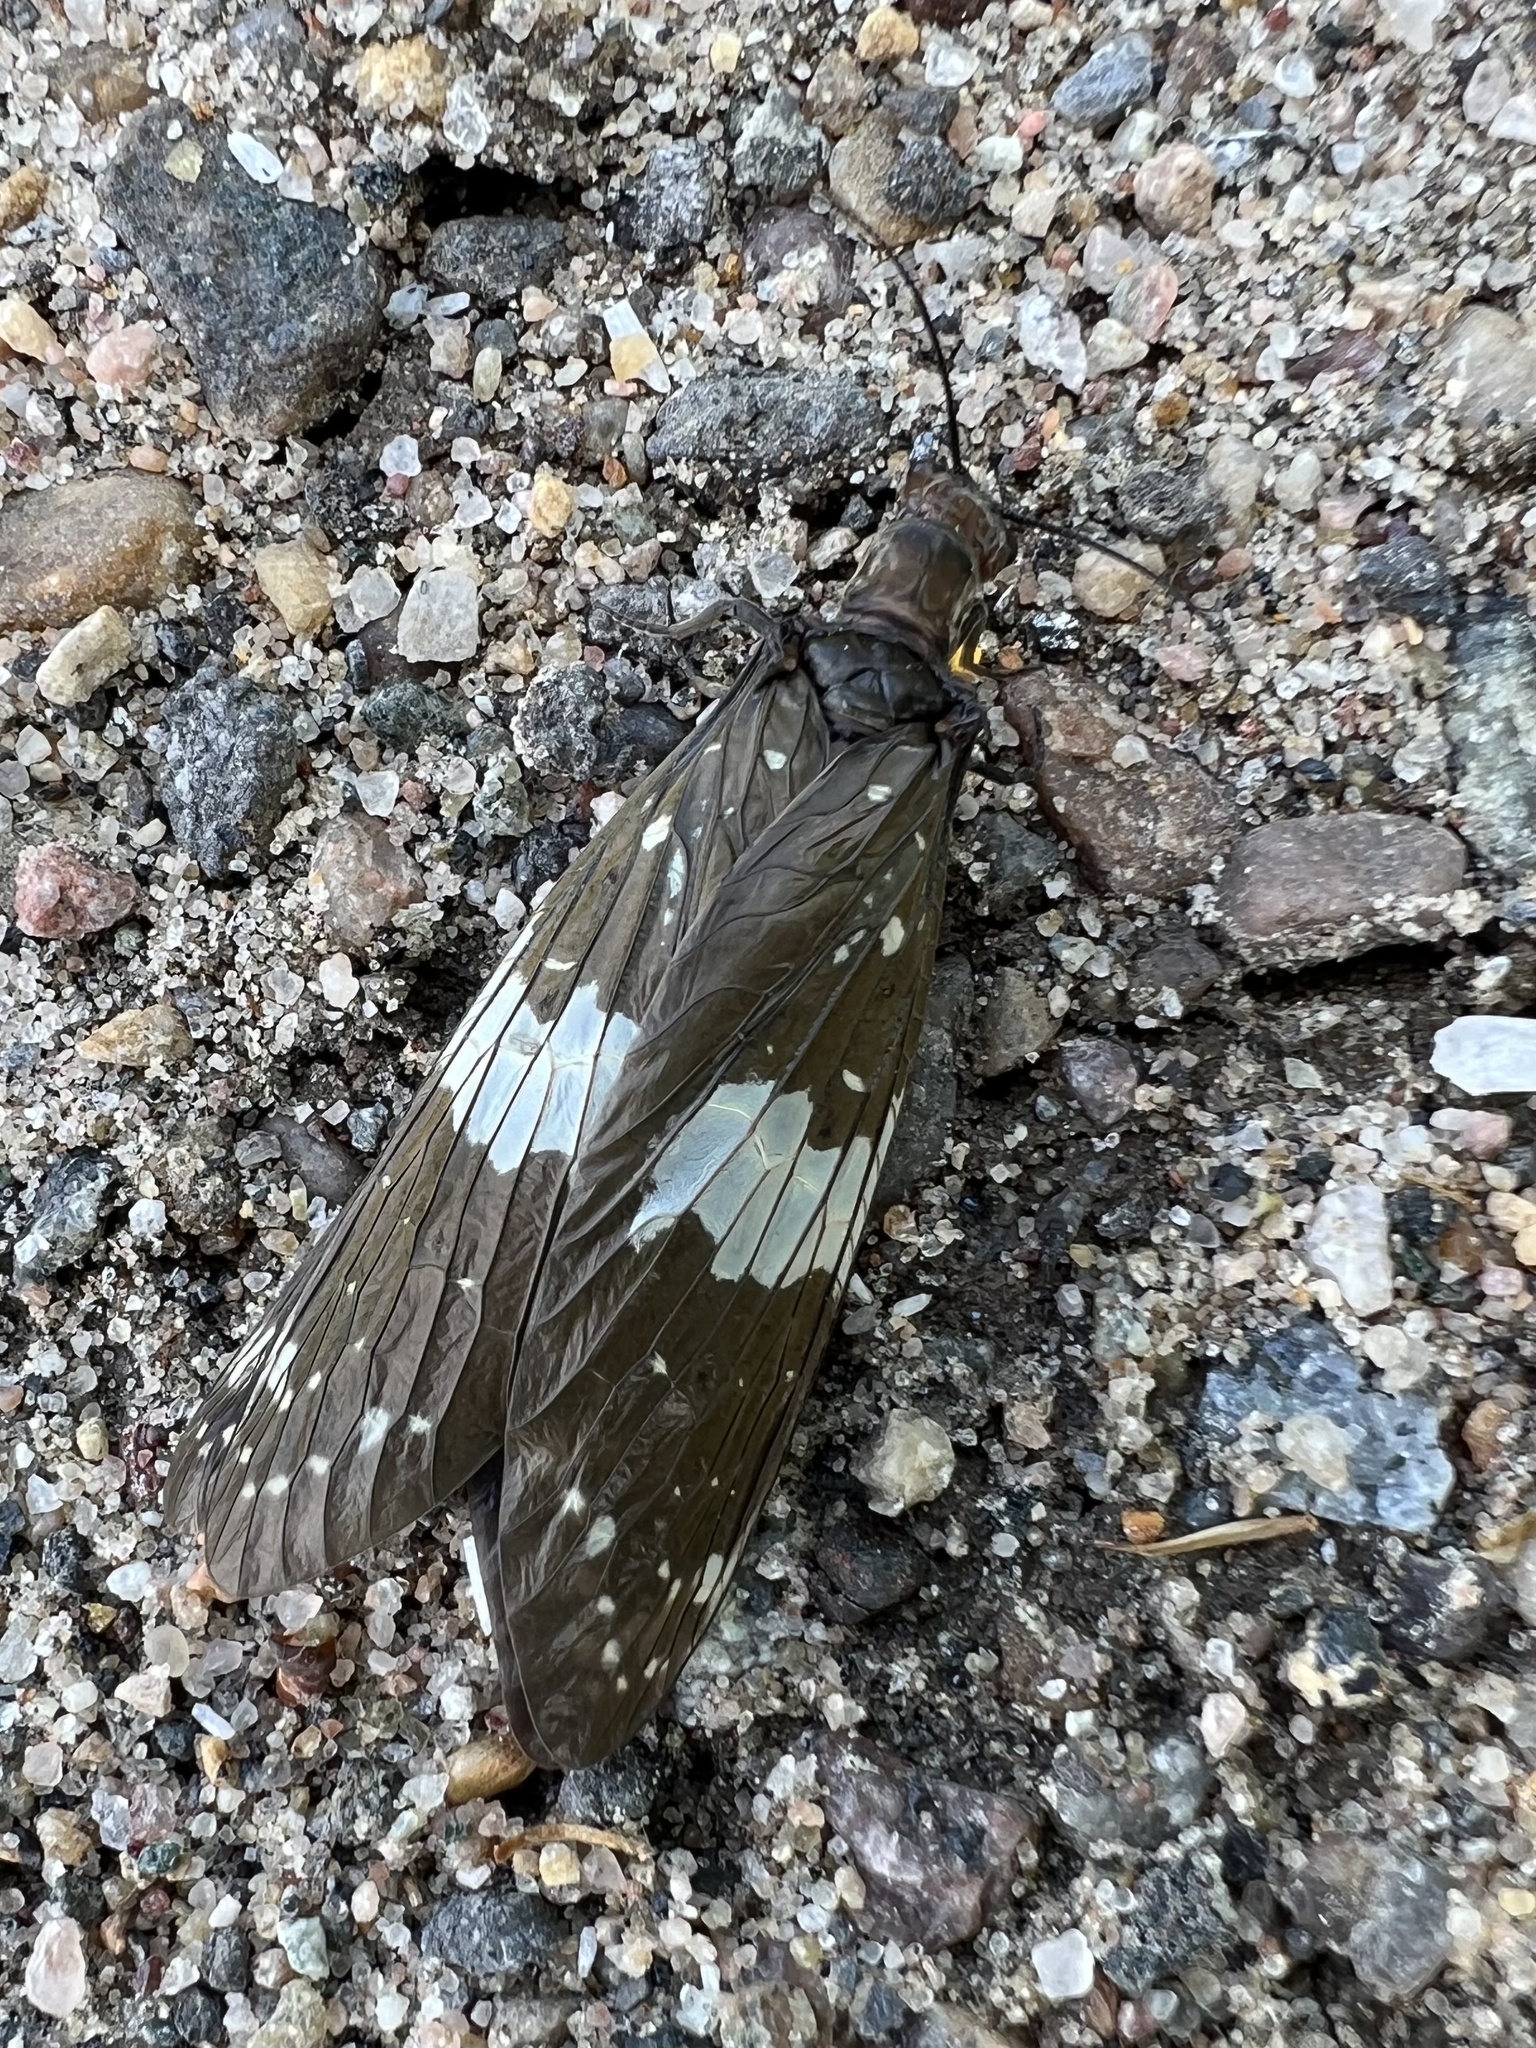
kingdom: Animalia
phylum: Arthropoda
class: Insecta
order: Megaloptera
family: Corydalidae
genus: Nigronia
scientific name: Nigronia serricornis
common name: Serrate dark fishfly
